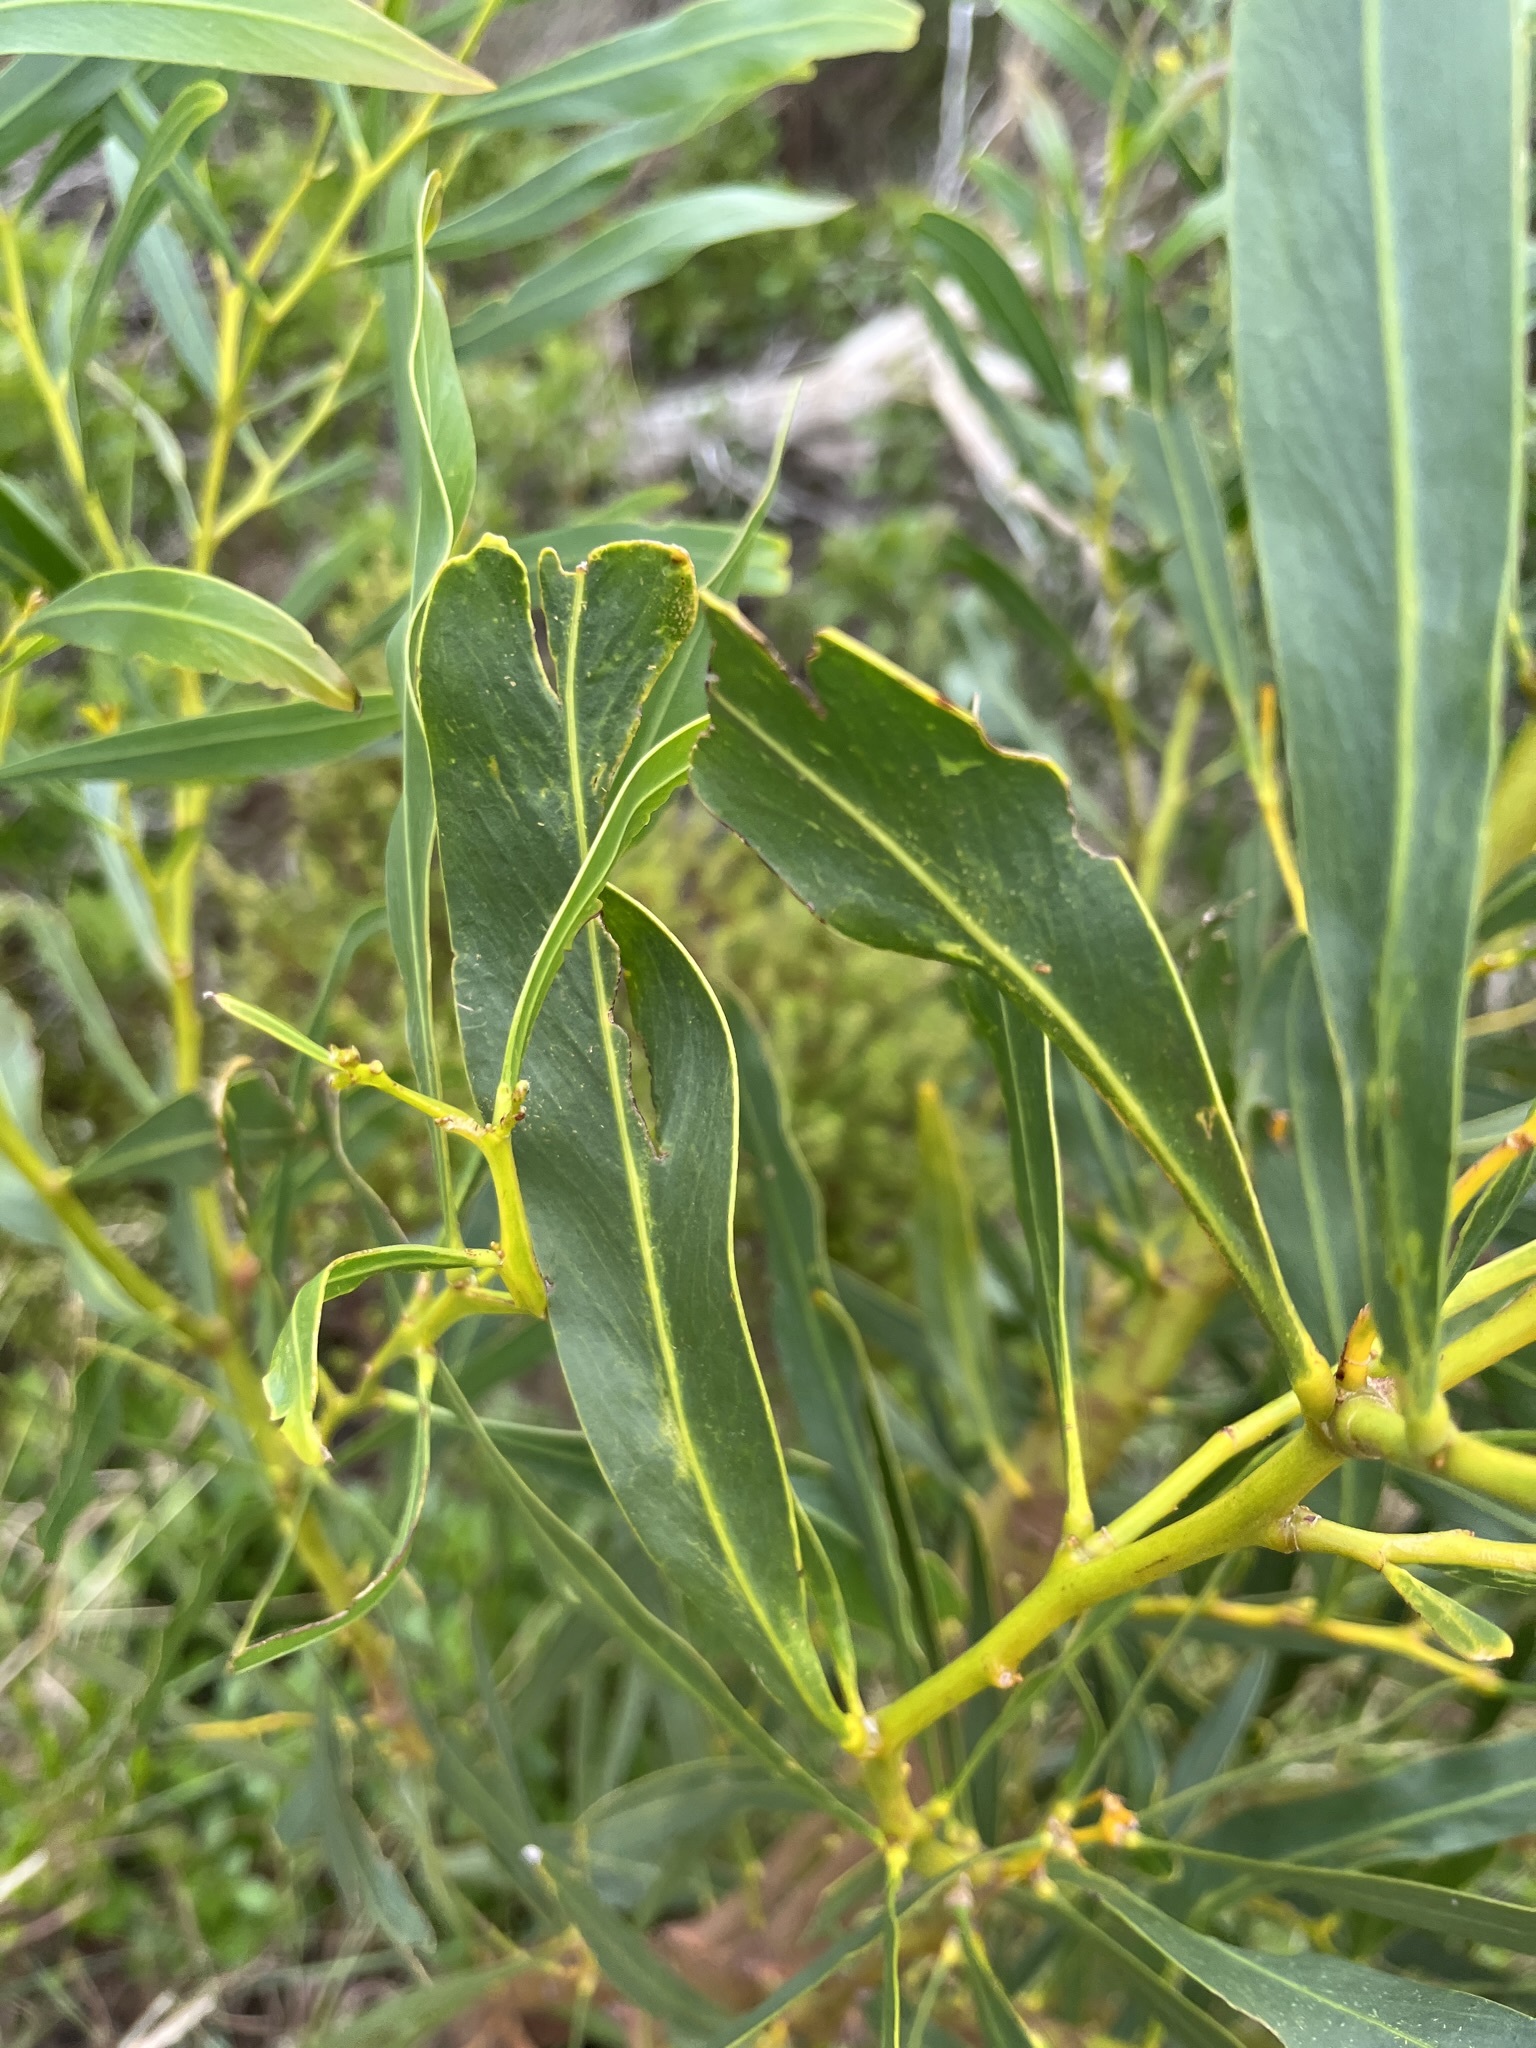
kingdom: Plantae
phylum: Tracheophyta
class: Magnoliopsida
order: Fabales
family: Fabaceae
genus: Acacia
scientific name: Acacia saligna
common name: Orange wattle
